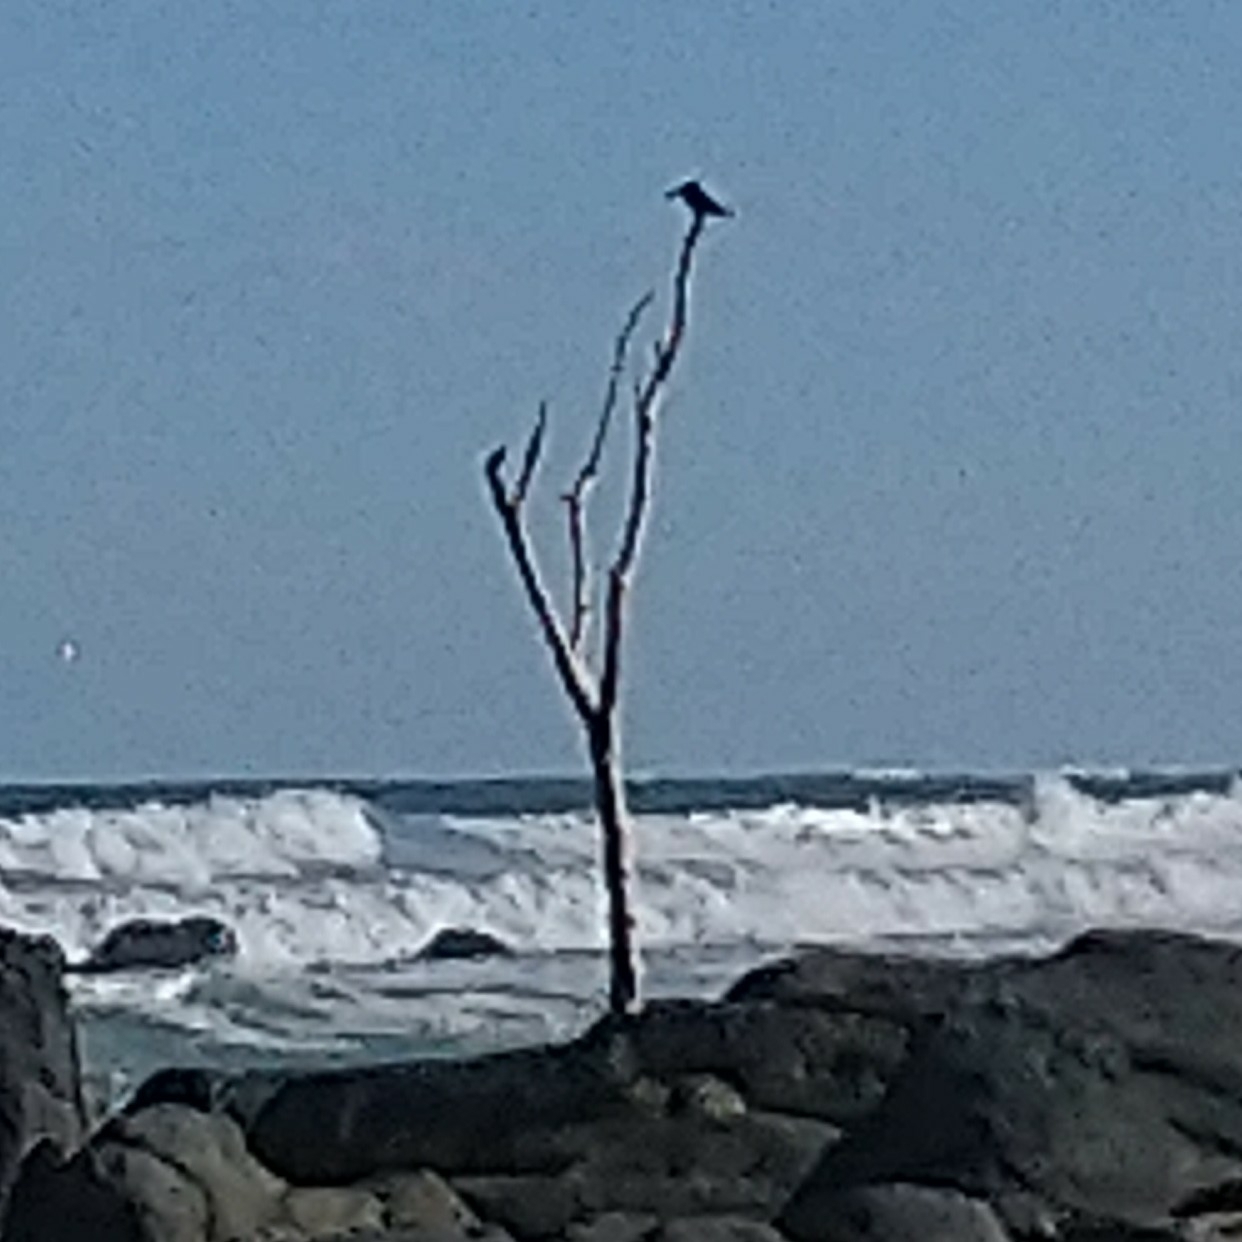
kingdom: Animalia
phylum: Chordata
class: Aves
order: Coraciiformes
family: Alcedinidae
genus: Megaceryle
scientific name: Megaceryle maxima
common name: Giant kingfisher
